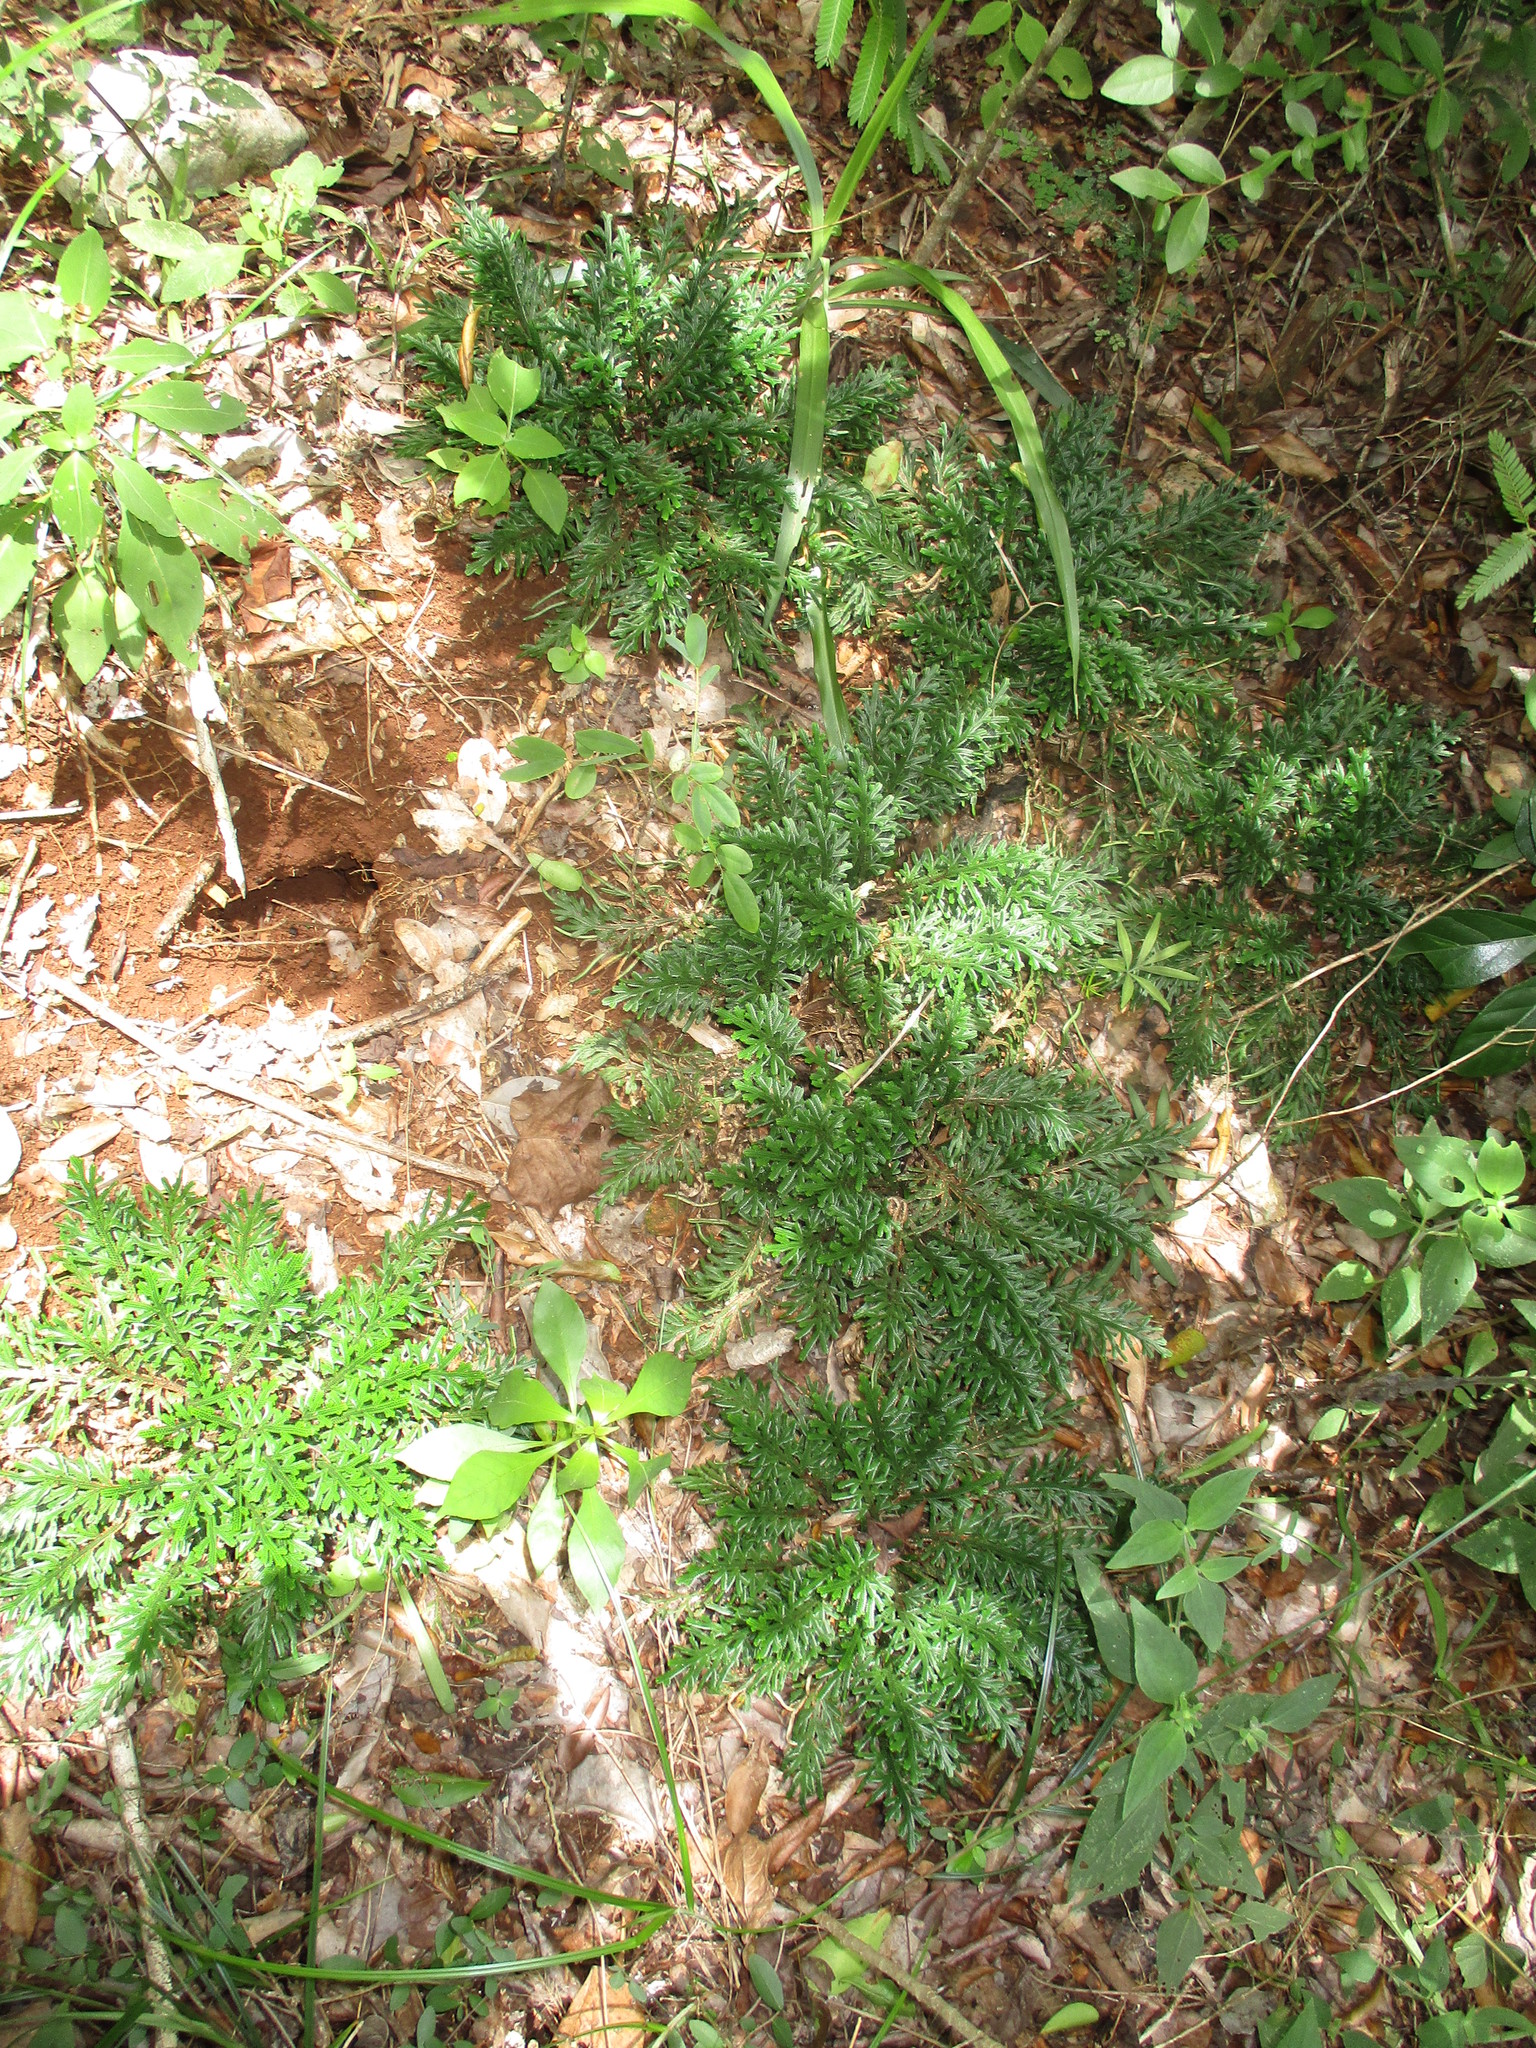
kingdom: Plantae
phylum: Tracheophyta
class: Lycopodiopsida
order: Selaginellales
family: Selaginellaceae
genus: Selaginella
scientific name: Selaginella convoluta
